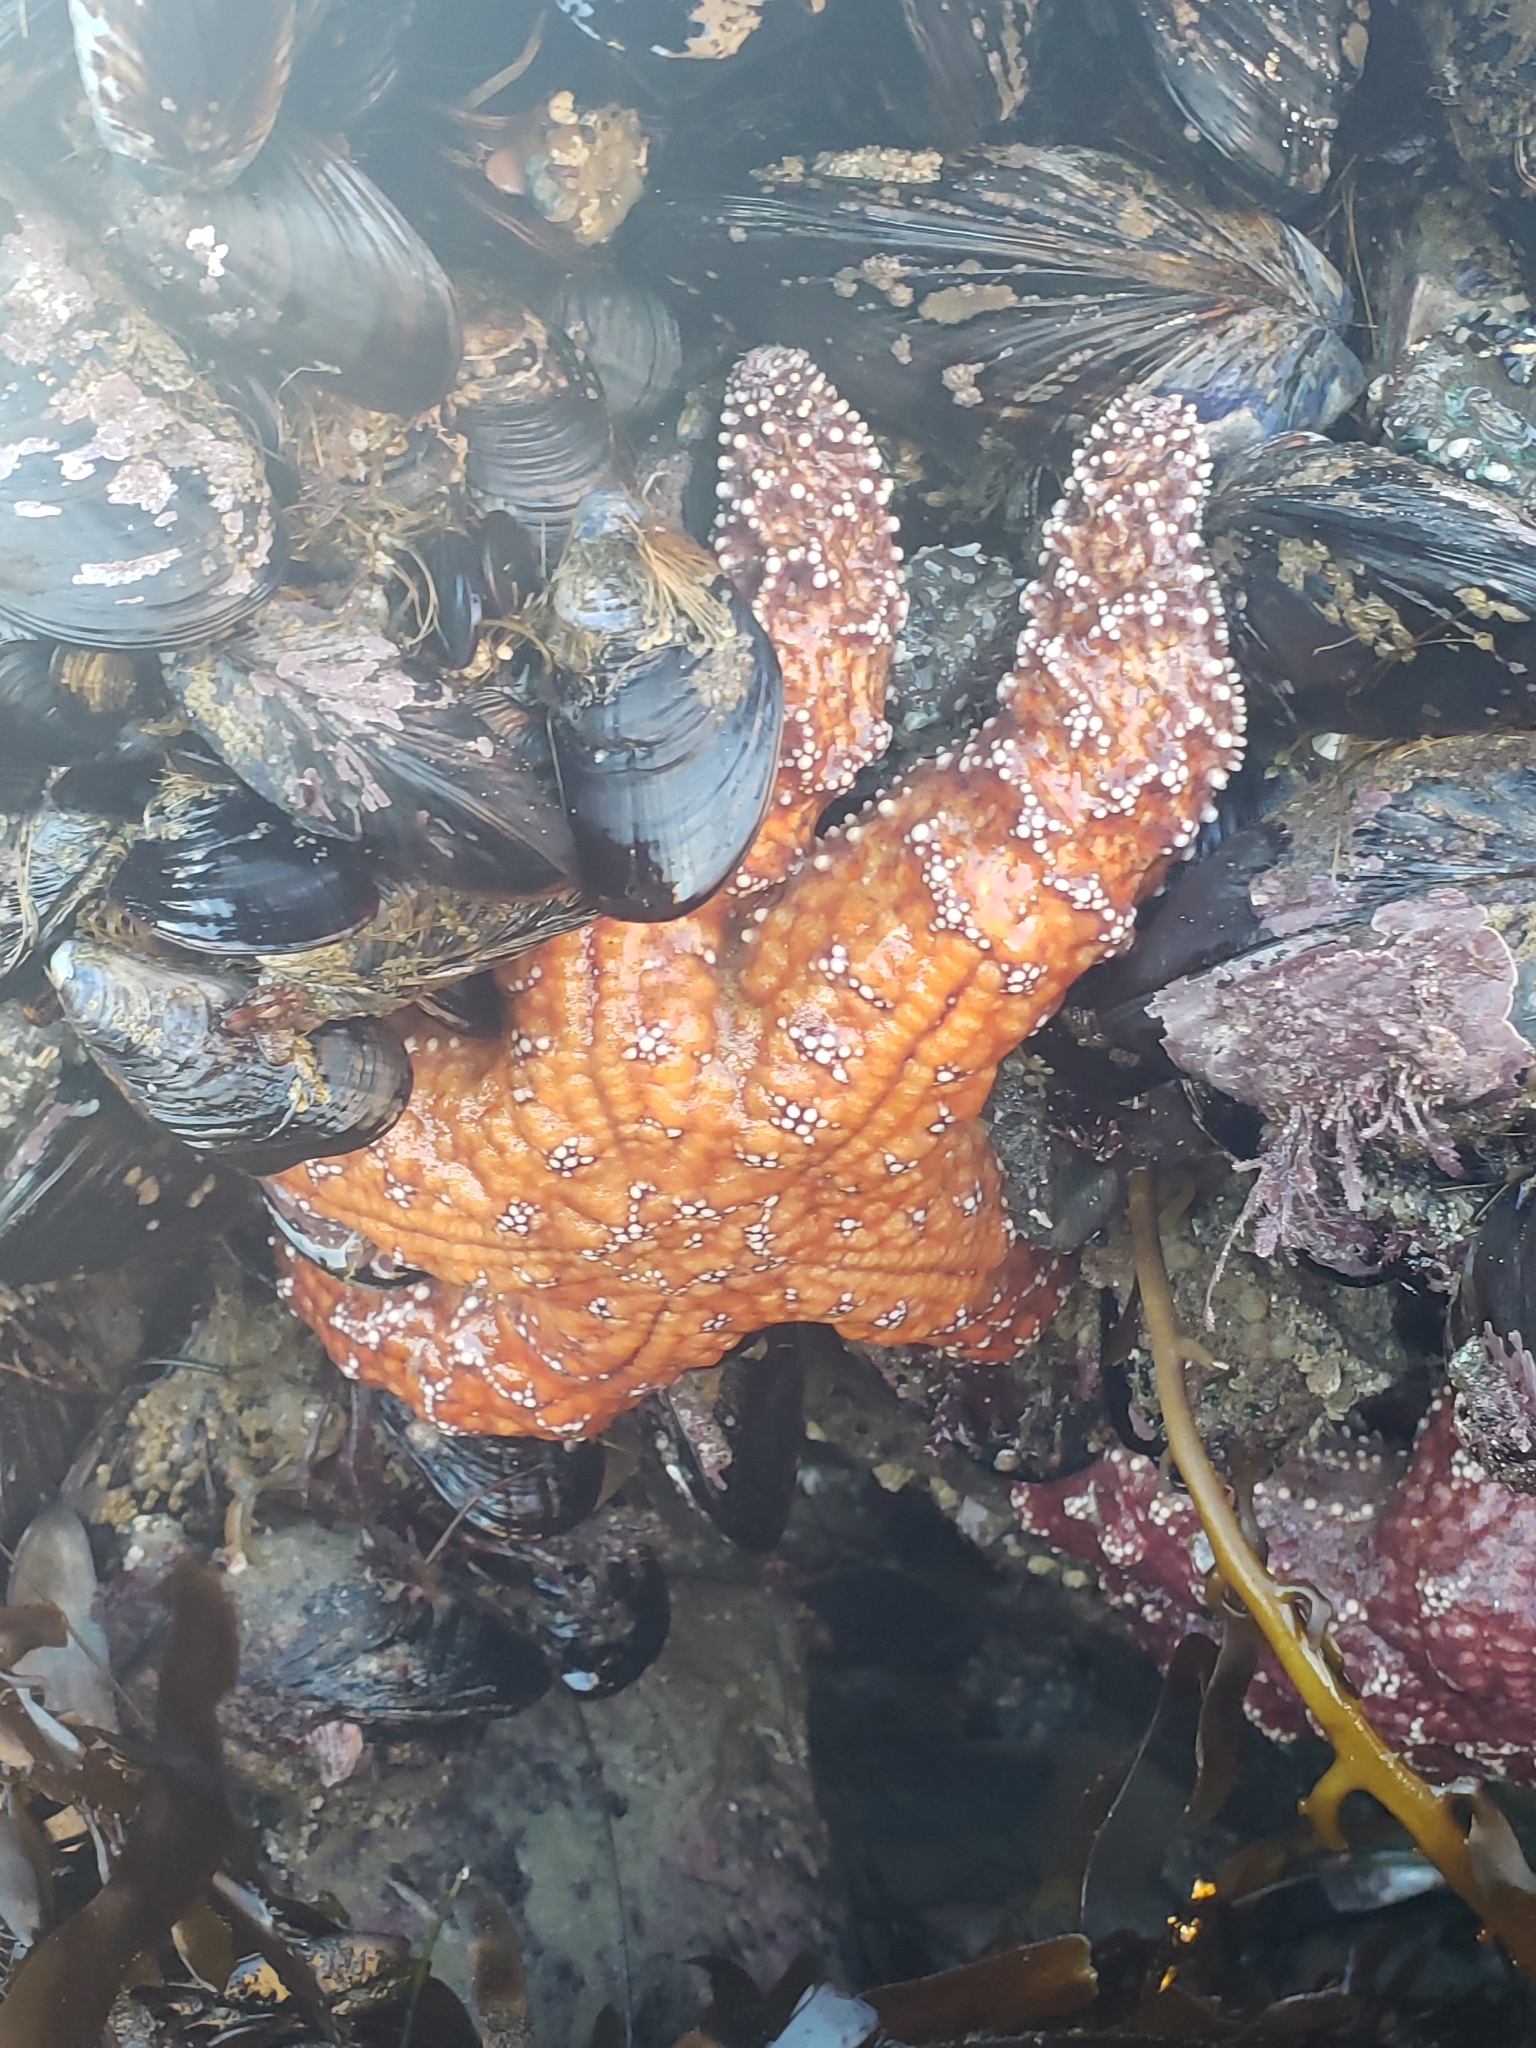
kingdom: Animalia
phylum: Echinodermata
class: Asteroidea
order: Forcipulatida
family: Asteriidae
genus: Pisaster
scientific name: Pisaster ochraceus
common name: Ochre stars
